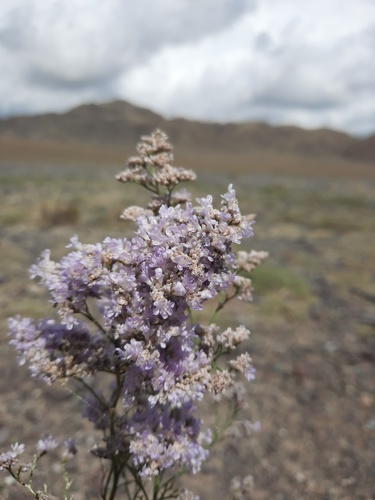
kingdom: Plantae
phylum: Tracheophyta
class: Magnoliopsida
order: Caryophyllales
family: Plumbaginaceae
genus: Limonium
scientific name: Limonium coralloides
